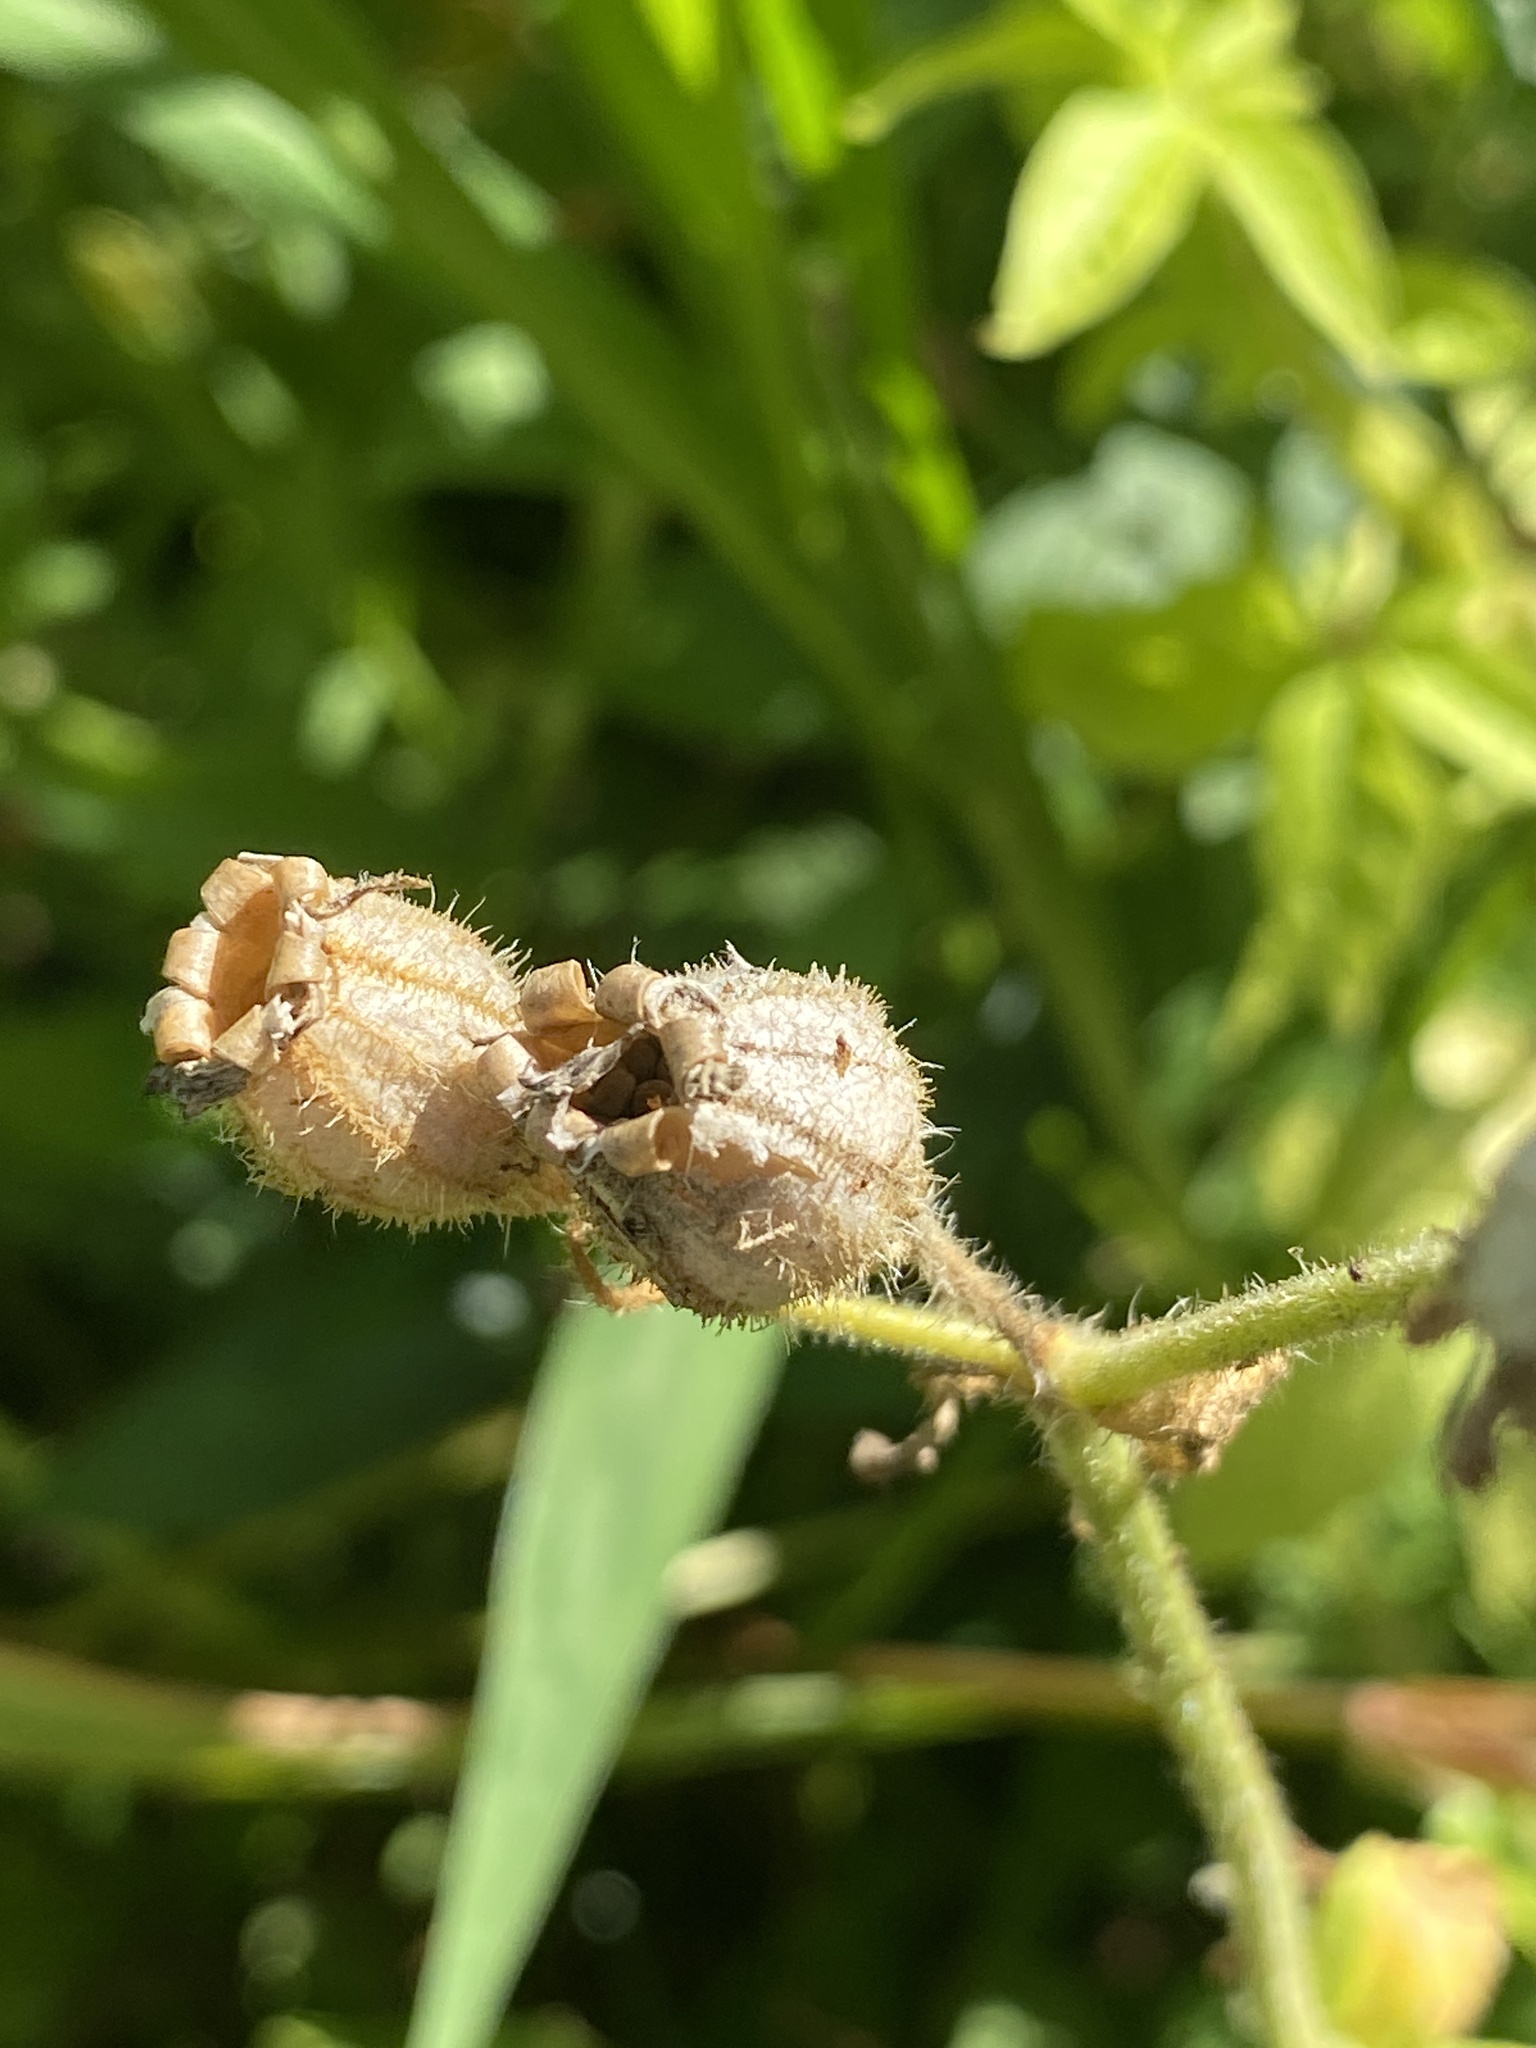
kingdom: Plantae
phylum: Tracheophyta
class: Magnoliopsida
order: Caryophyllales
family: Caryophyllaceae
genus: Silene
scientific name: Silene latifolia
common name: White campion
